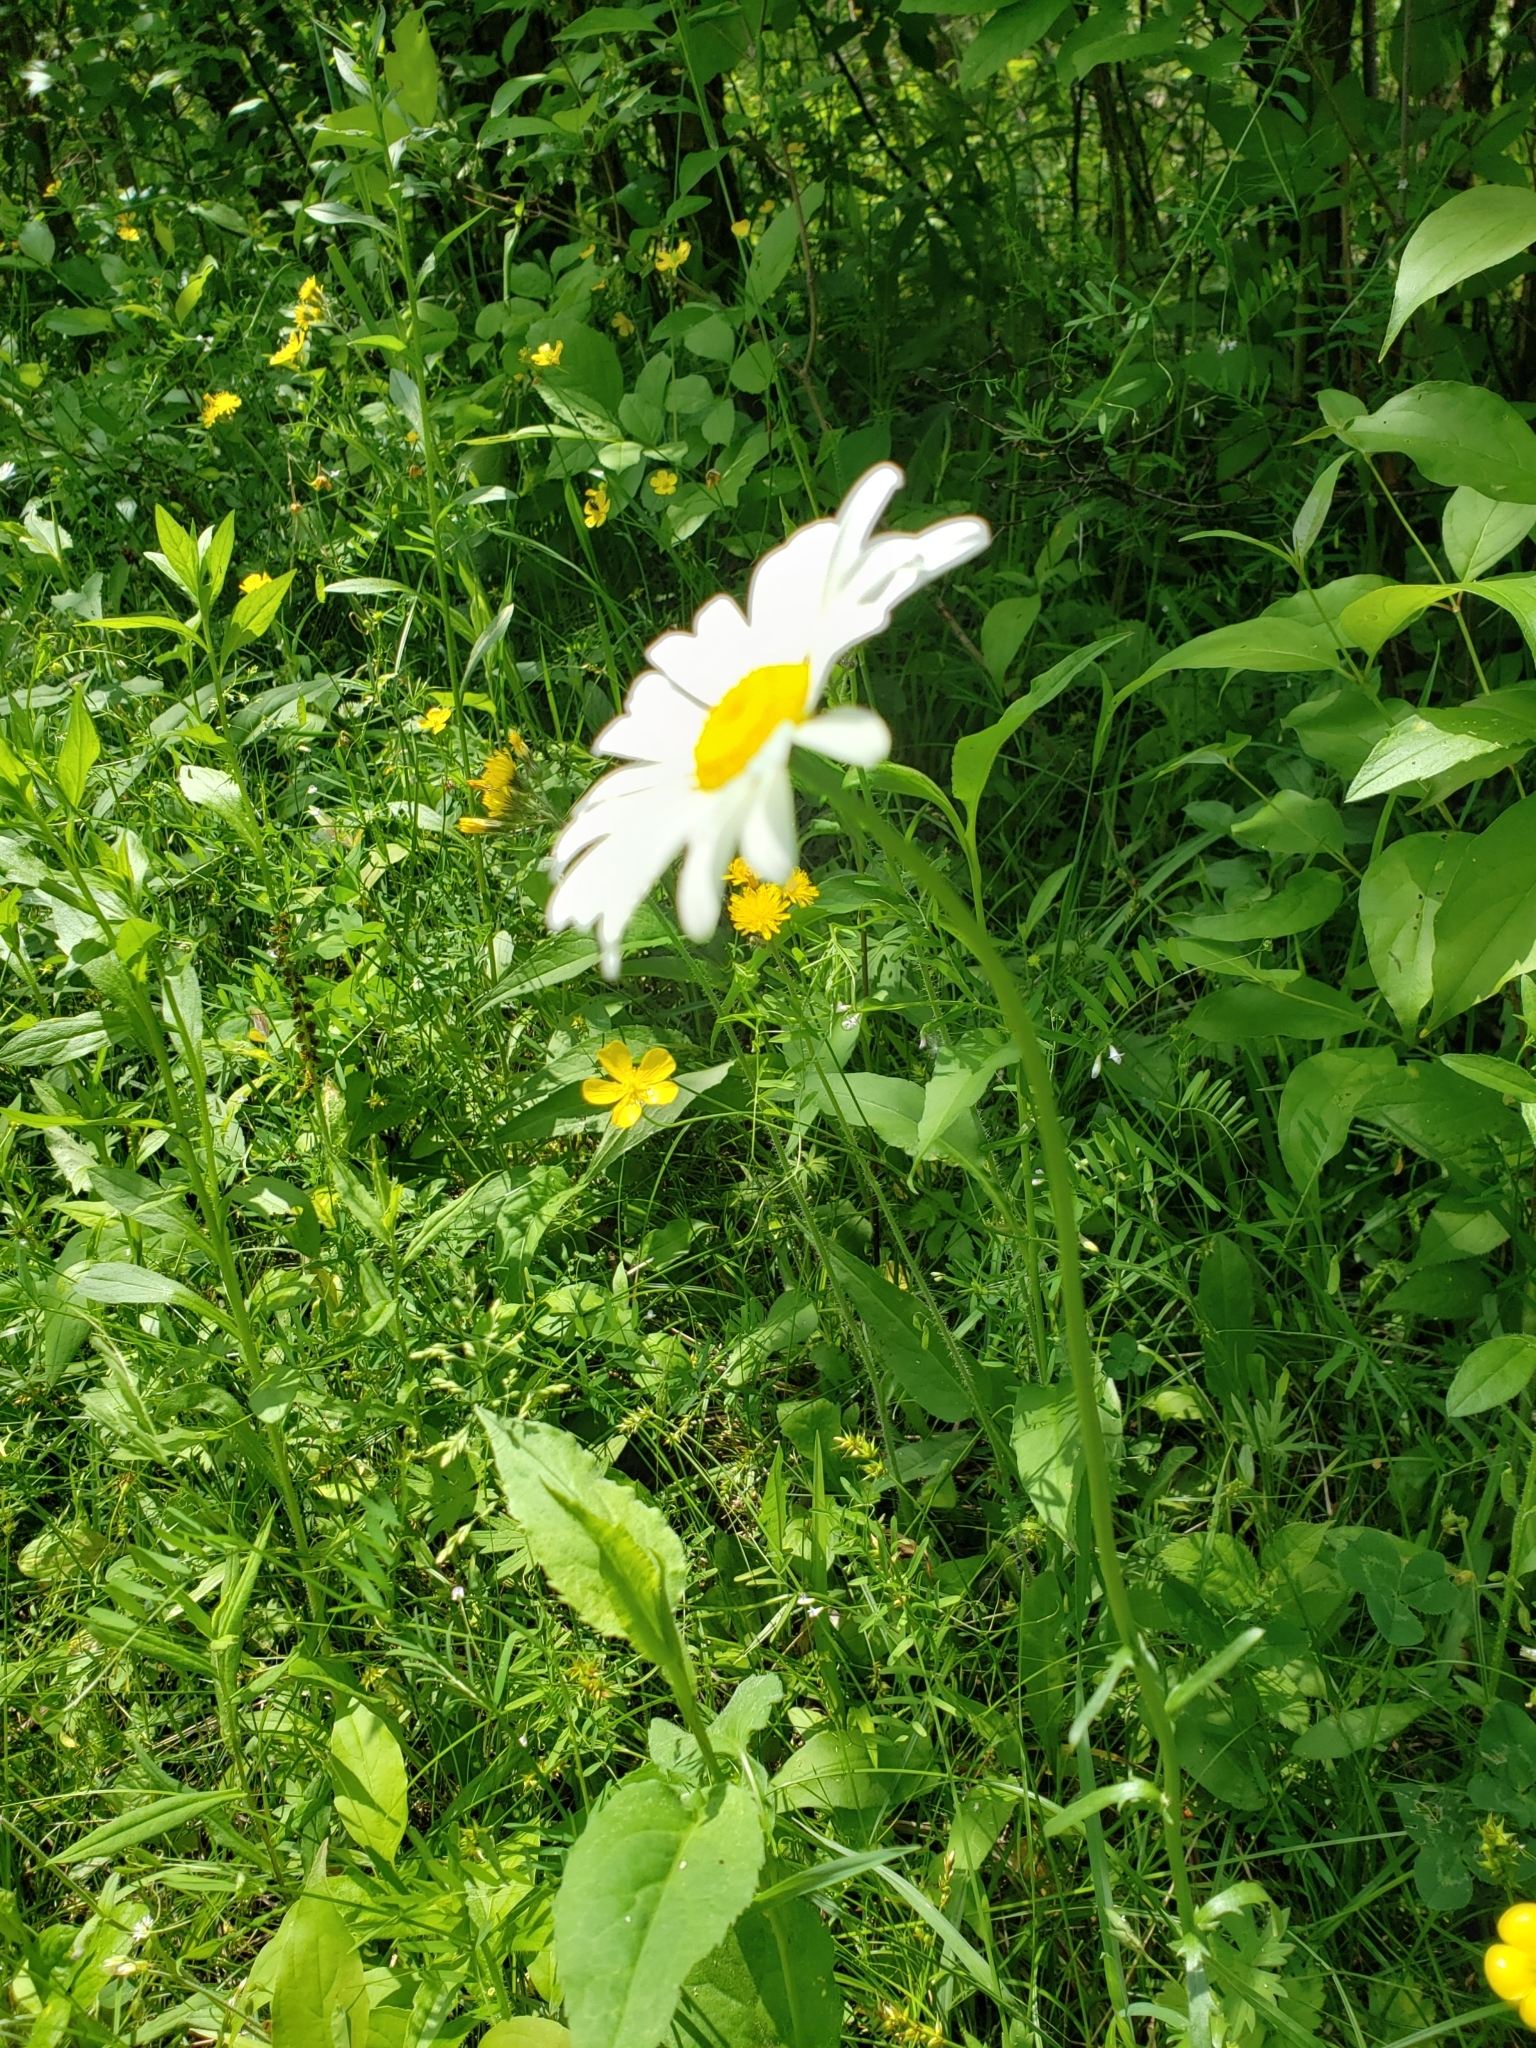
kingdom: Plantae
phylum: Tracheophyta
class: Magnoliopsida
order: Asterales
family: Asteraceae
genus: Leucanthemum
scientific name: Leucanthemum vulgare
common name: Oxeye daisy
